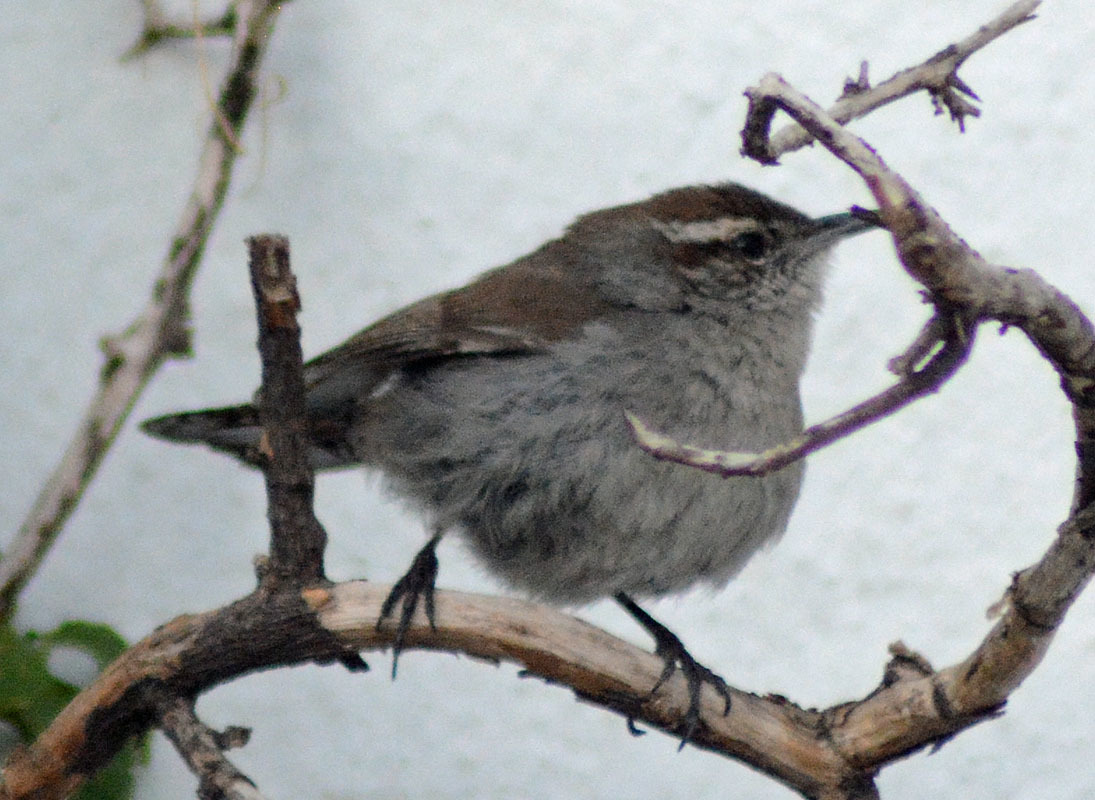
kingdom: Animalia
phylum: Chordata
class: Aves
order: Passeriformes
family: Troglodytidae
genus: Thryomanes
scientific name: Thryomanes bewickii
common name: Bewick's wren
